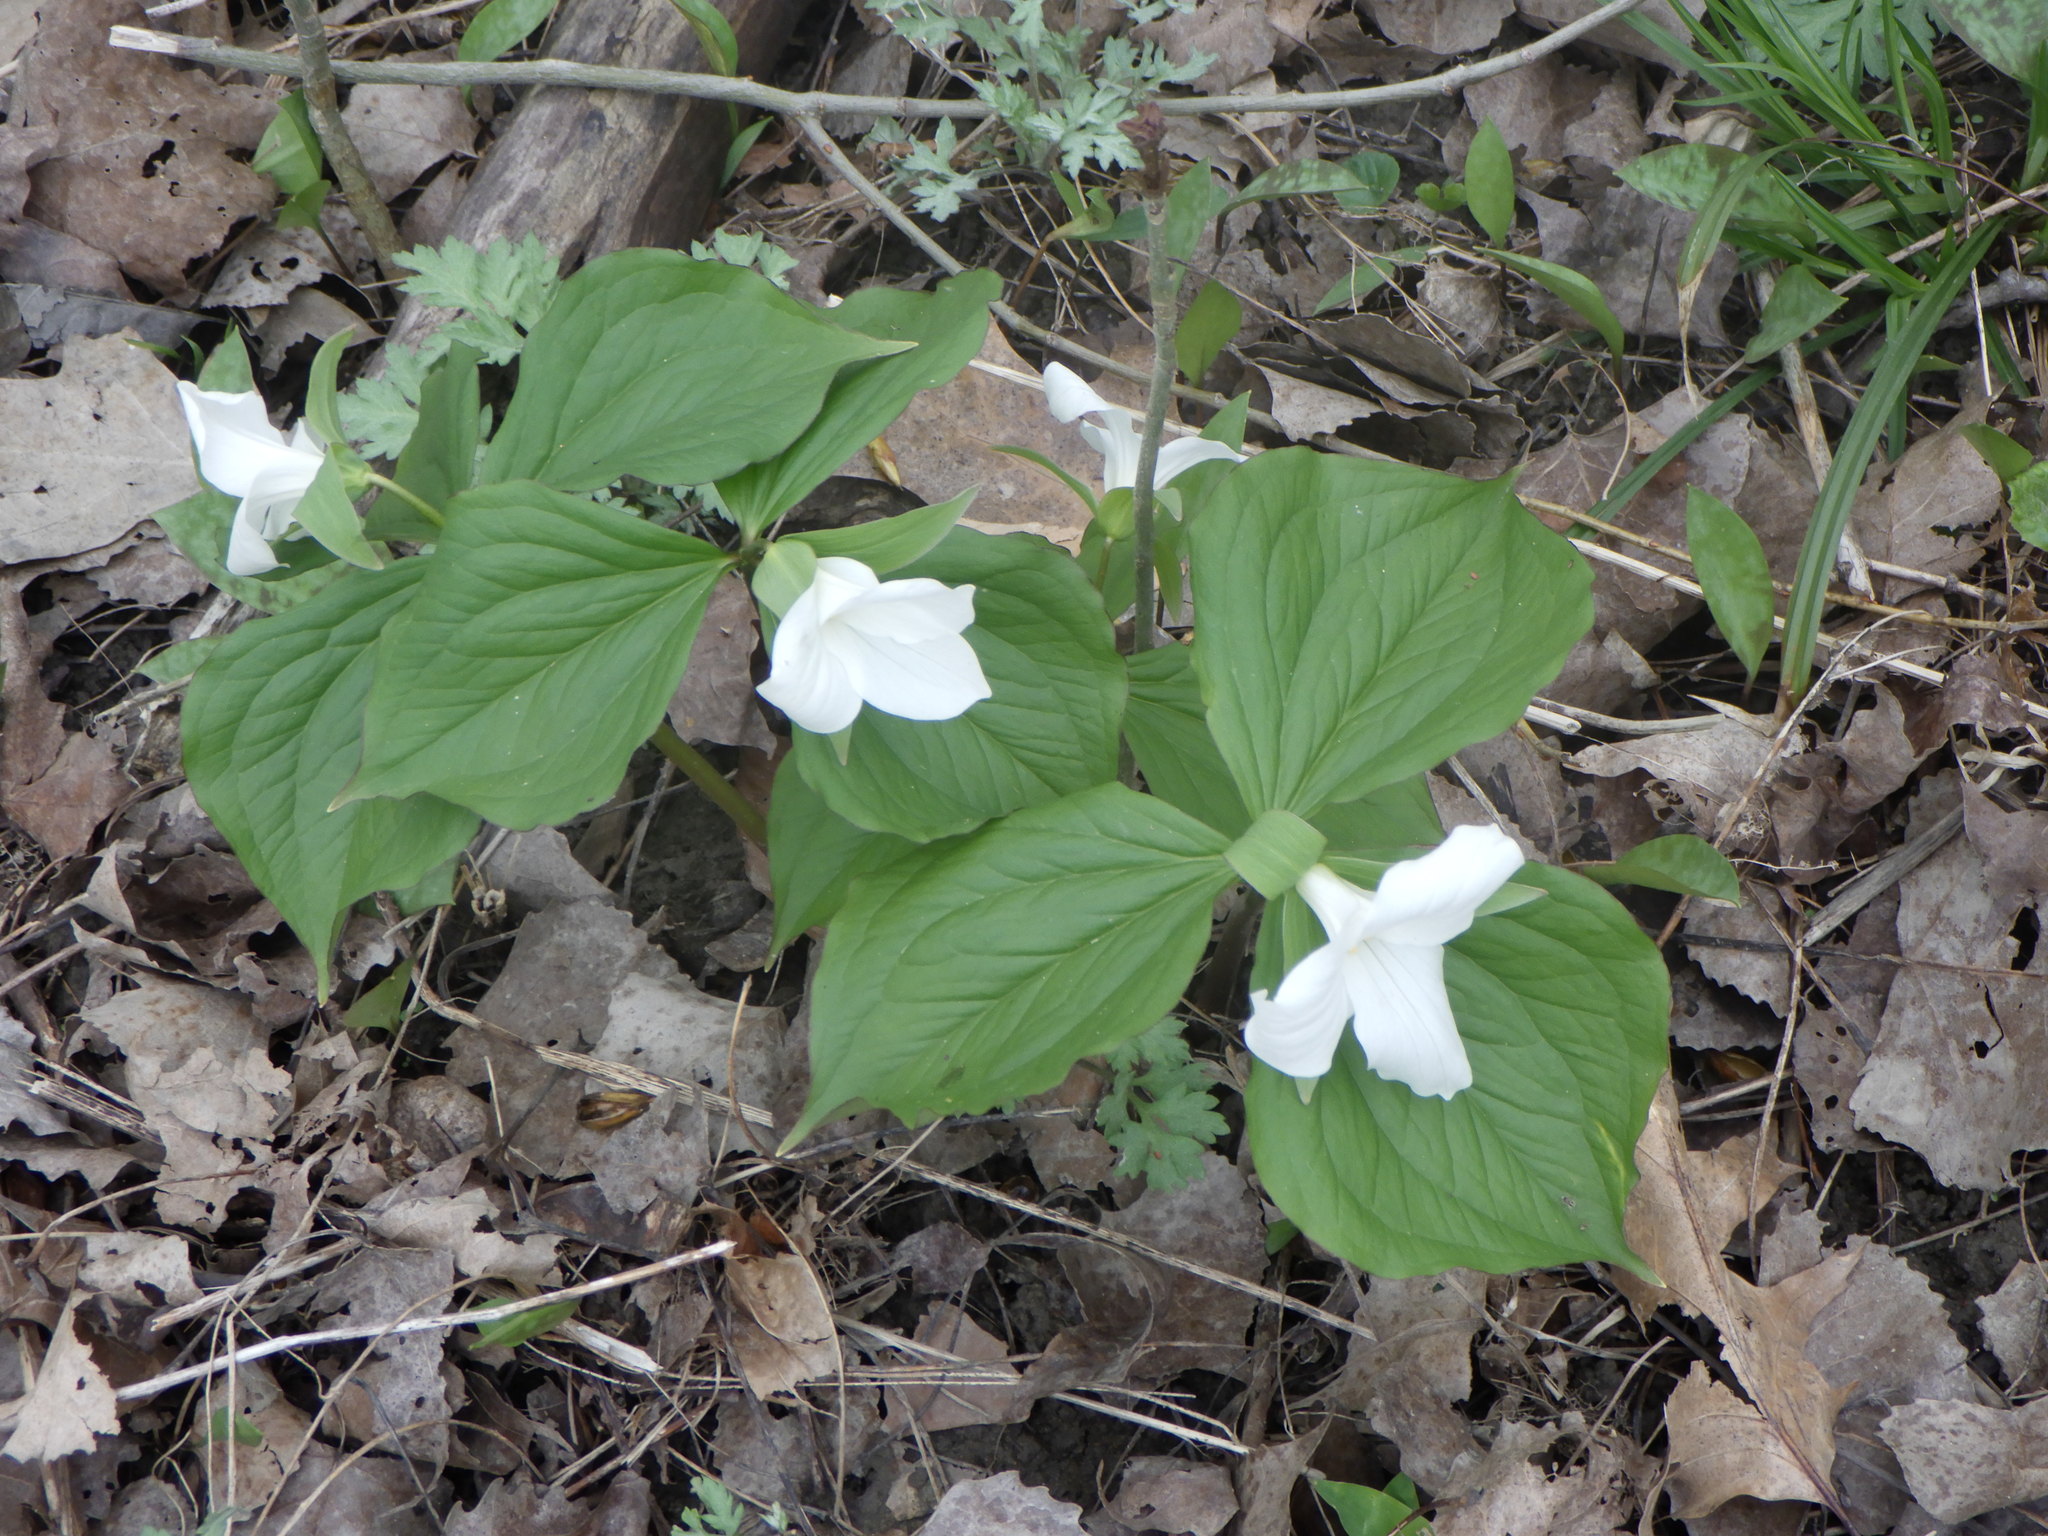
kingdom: Plantae
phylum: Tracheophyta
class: Liliopsida
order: Liliales
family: Melanthiaceae
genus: Trillium
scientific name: Trillium grandiflorum
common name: Great white trillium
